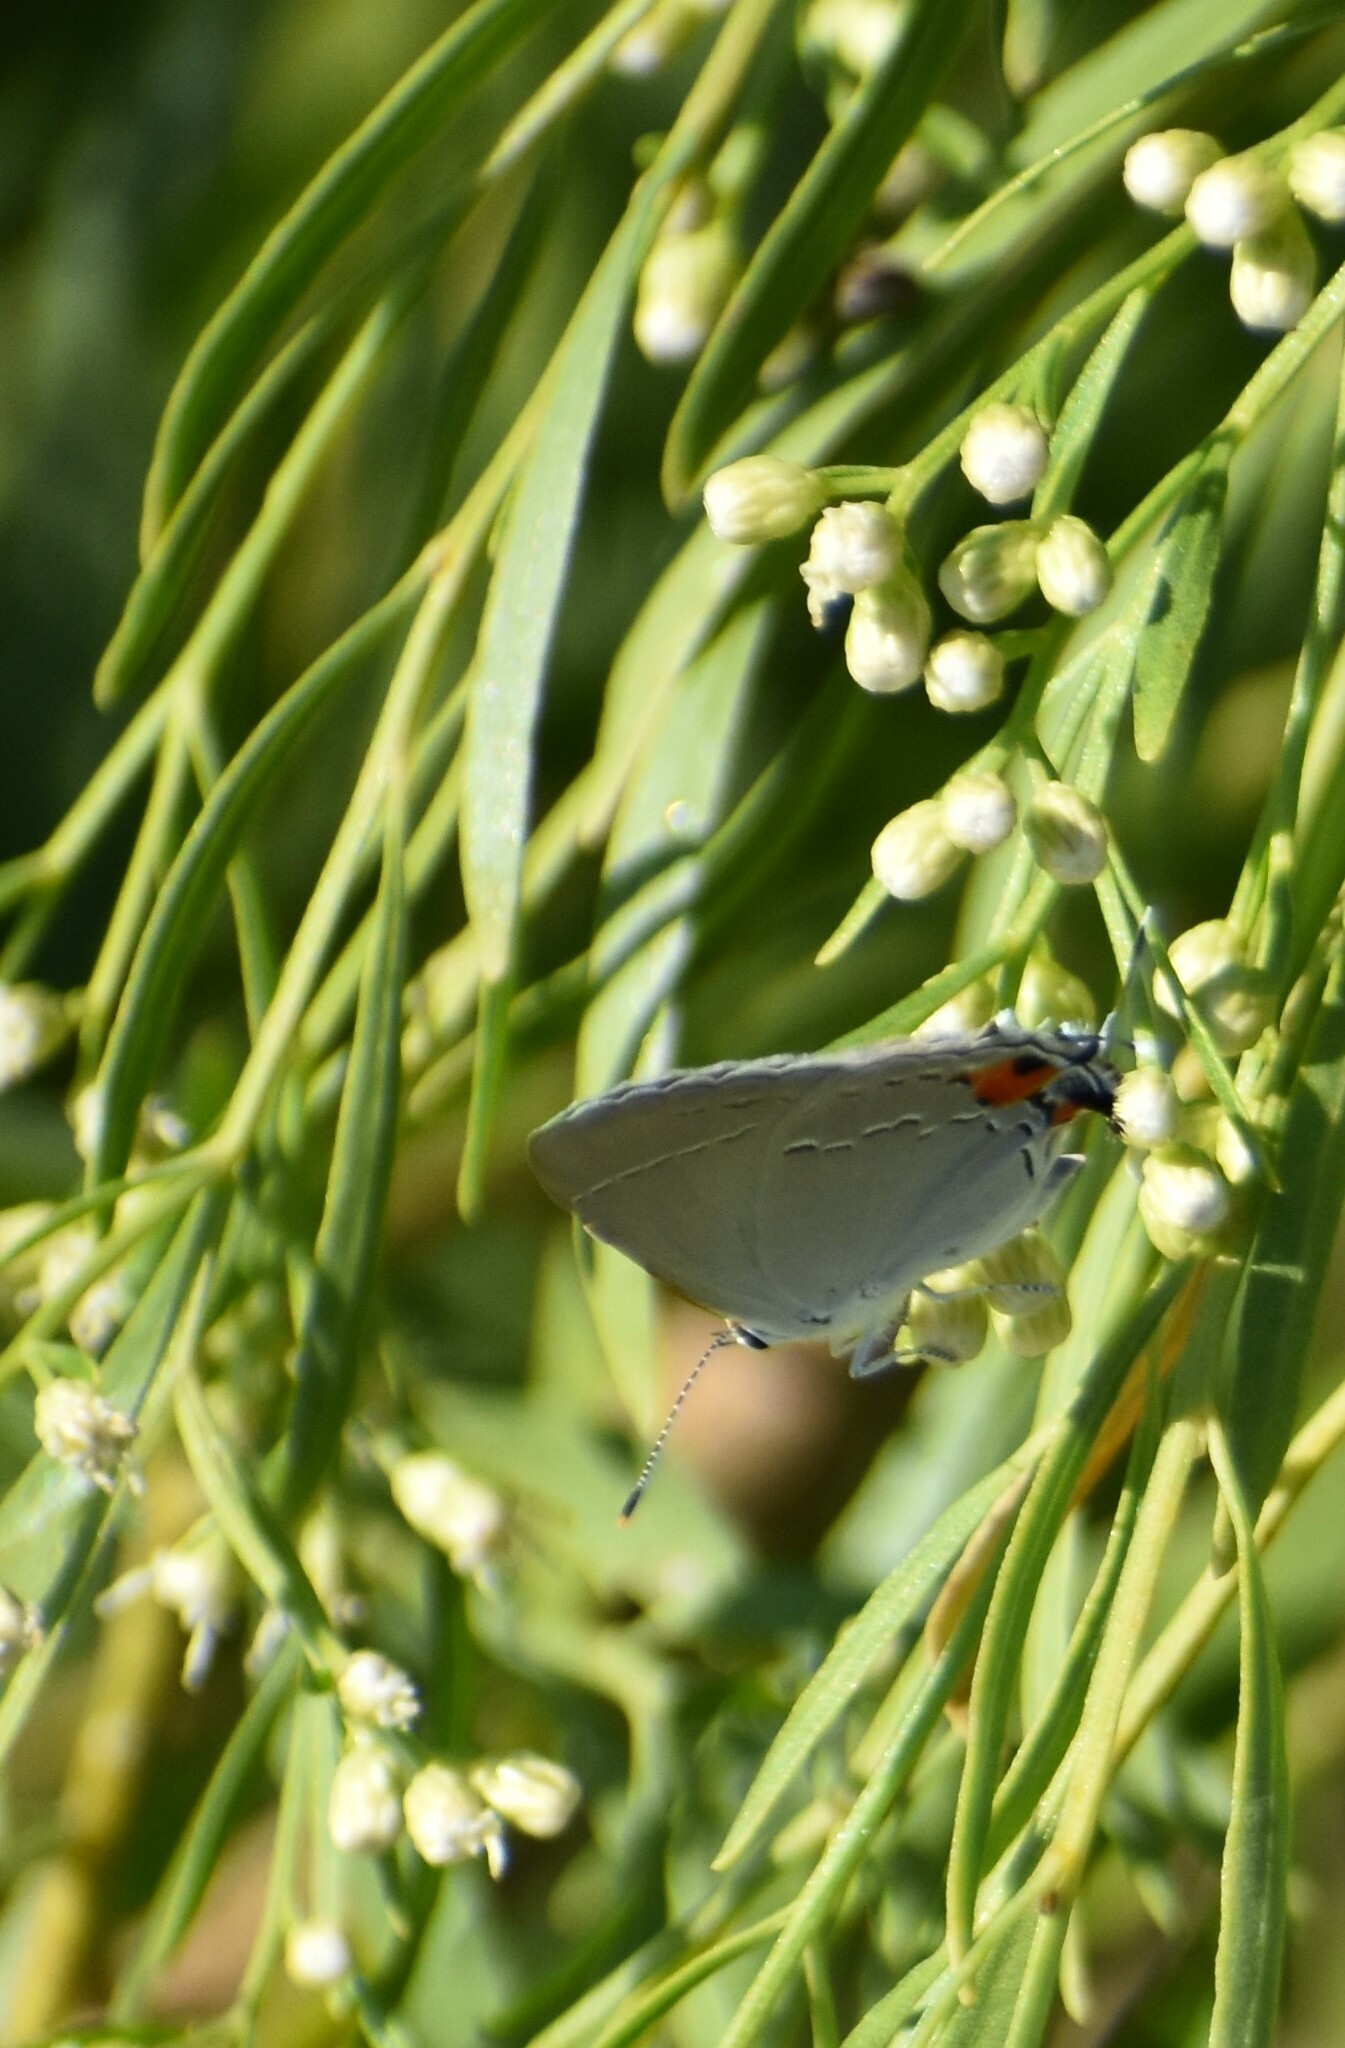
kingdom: Animalia
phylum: Arthropoda
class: Insecta
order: Lepidoptera
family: Lycaenidae
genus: Strymon
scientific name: Strymon melinus
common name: Gray hairstreak
